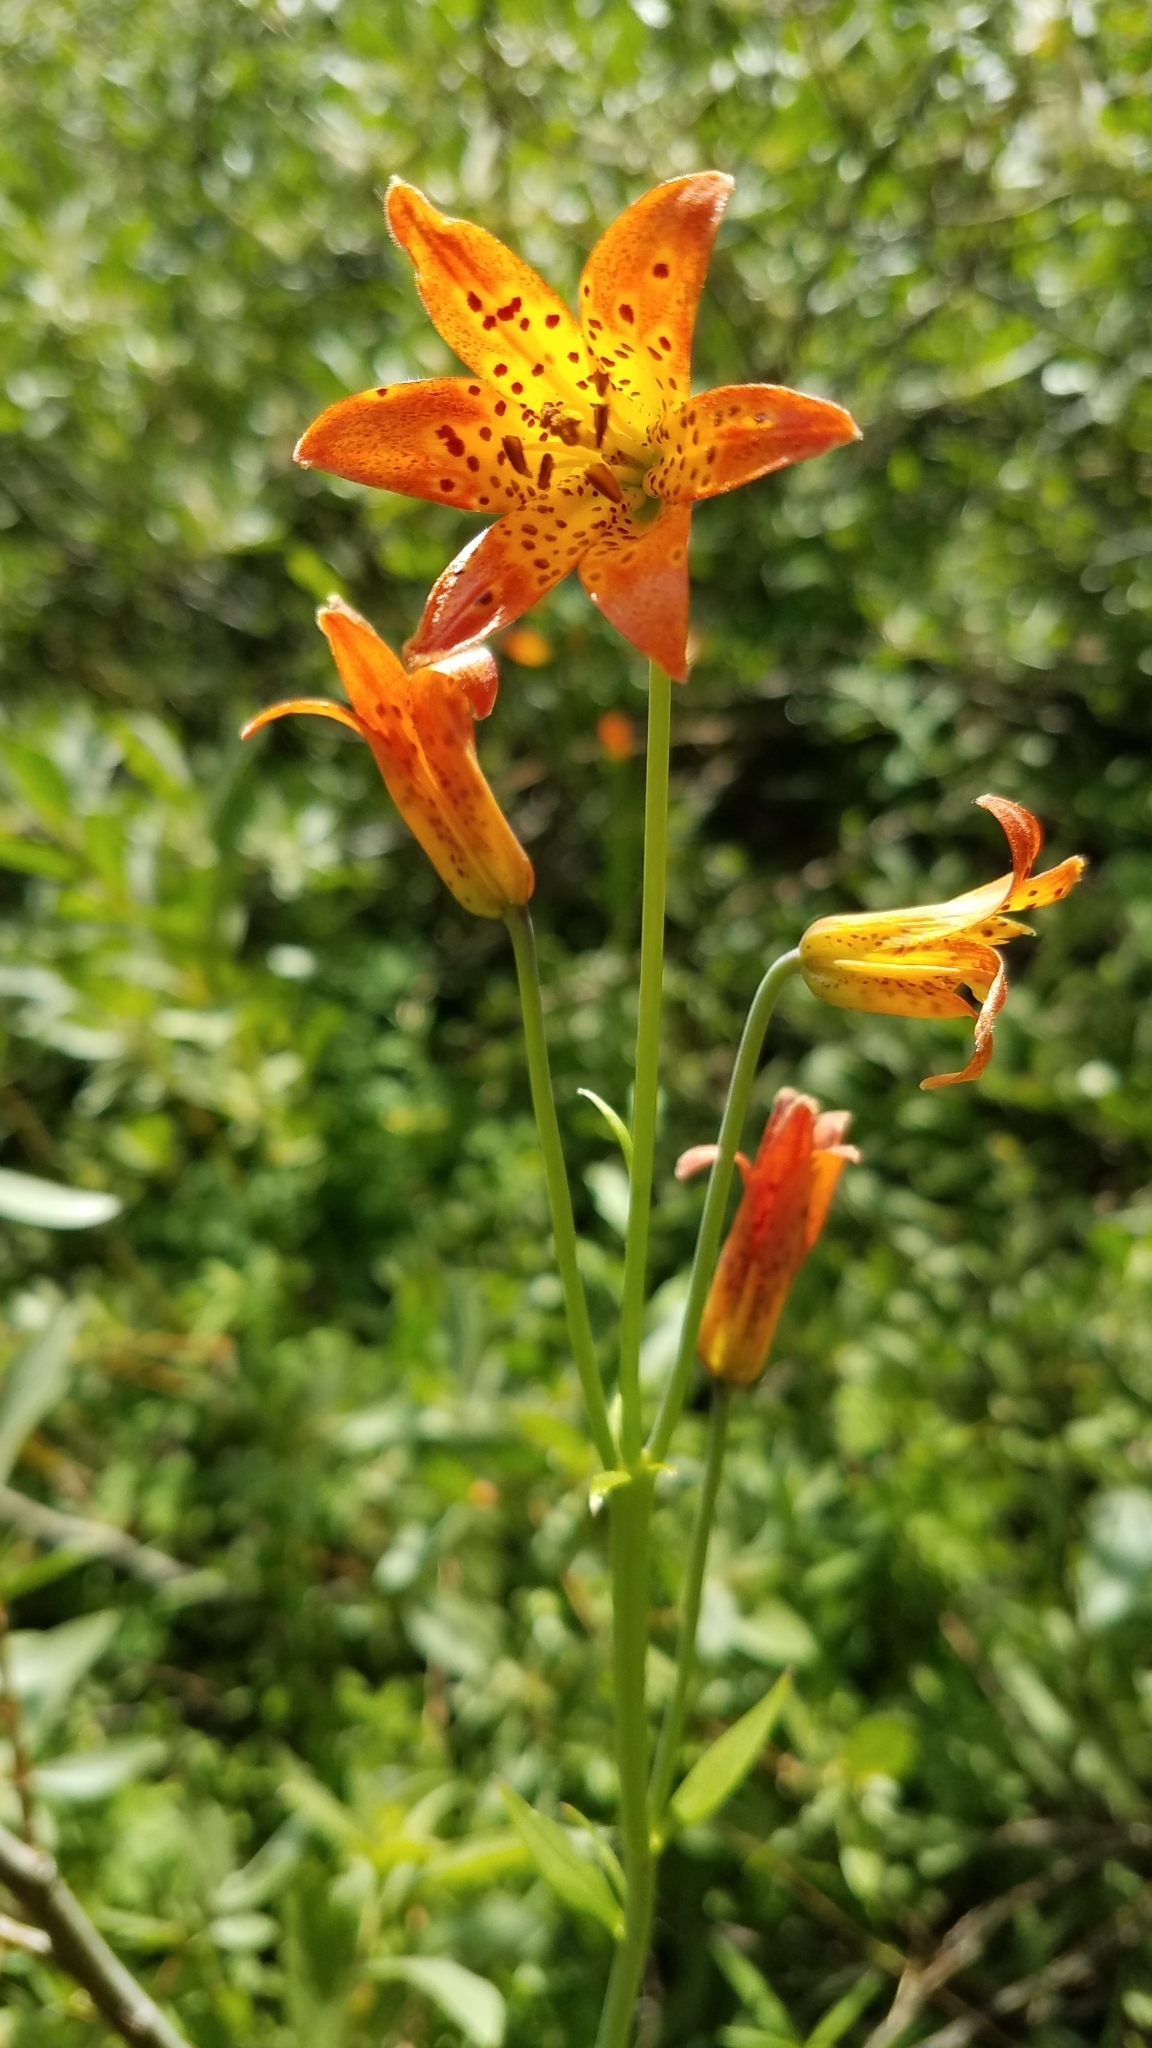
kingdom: Plantae
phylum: Tracheophyta
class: Liliopsida
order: Liliales
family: Liliaceae
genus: Lilium
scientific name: Lilium parvum
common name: Alpine lily
